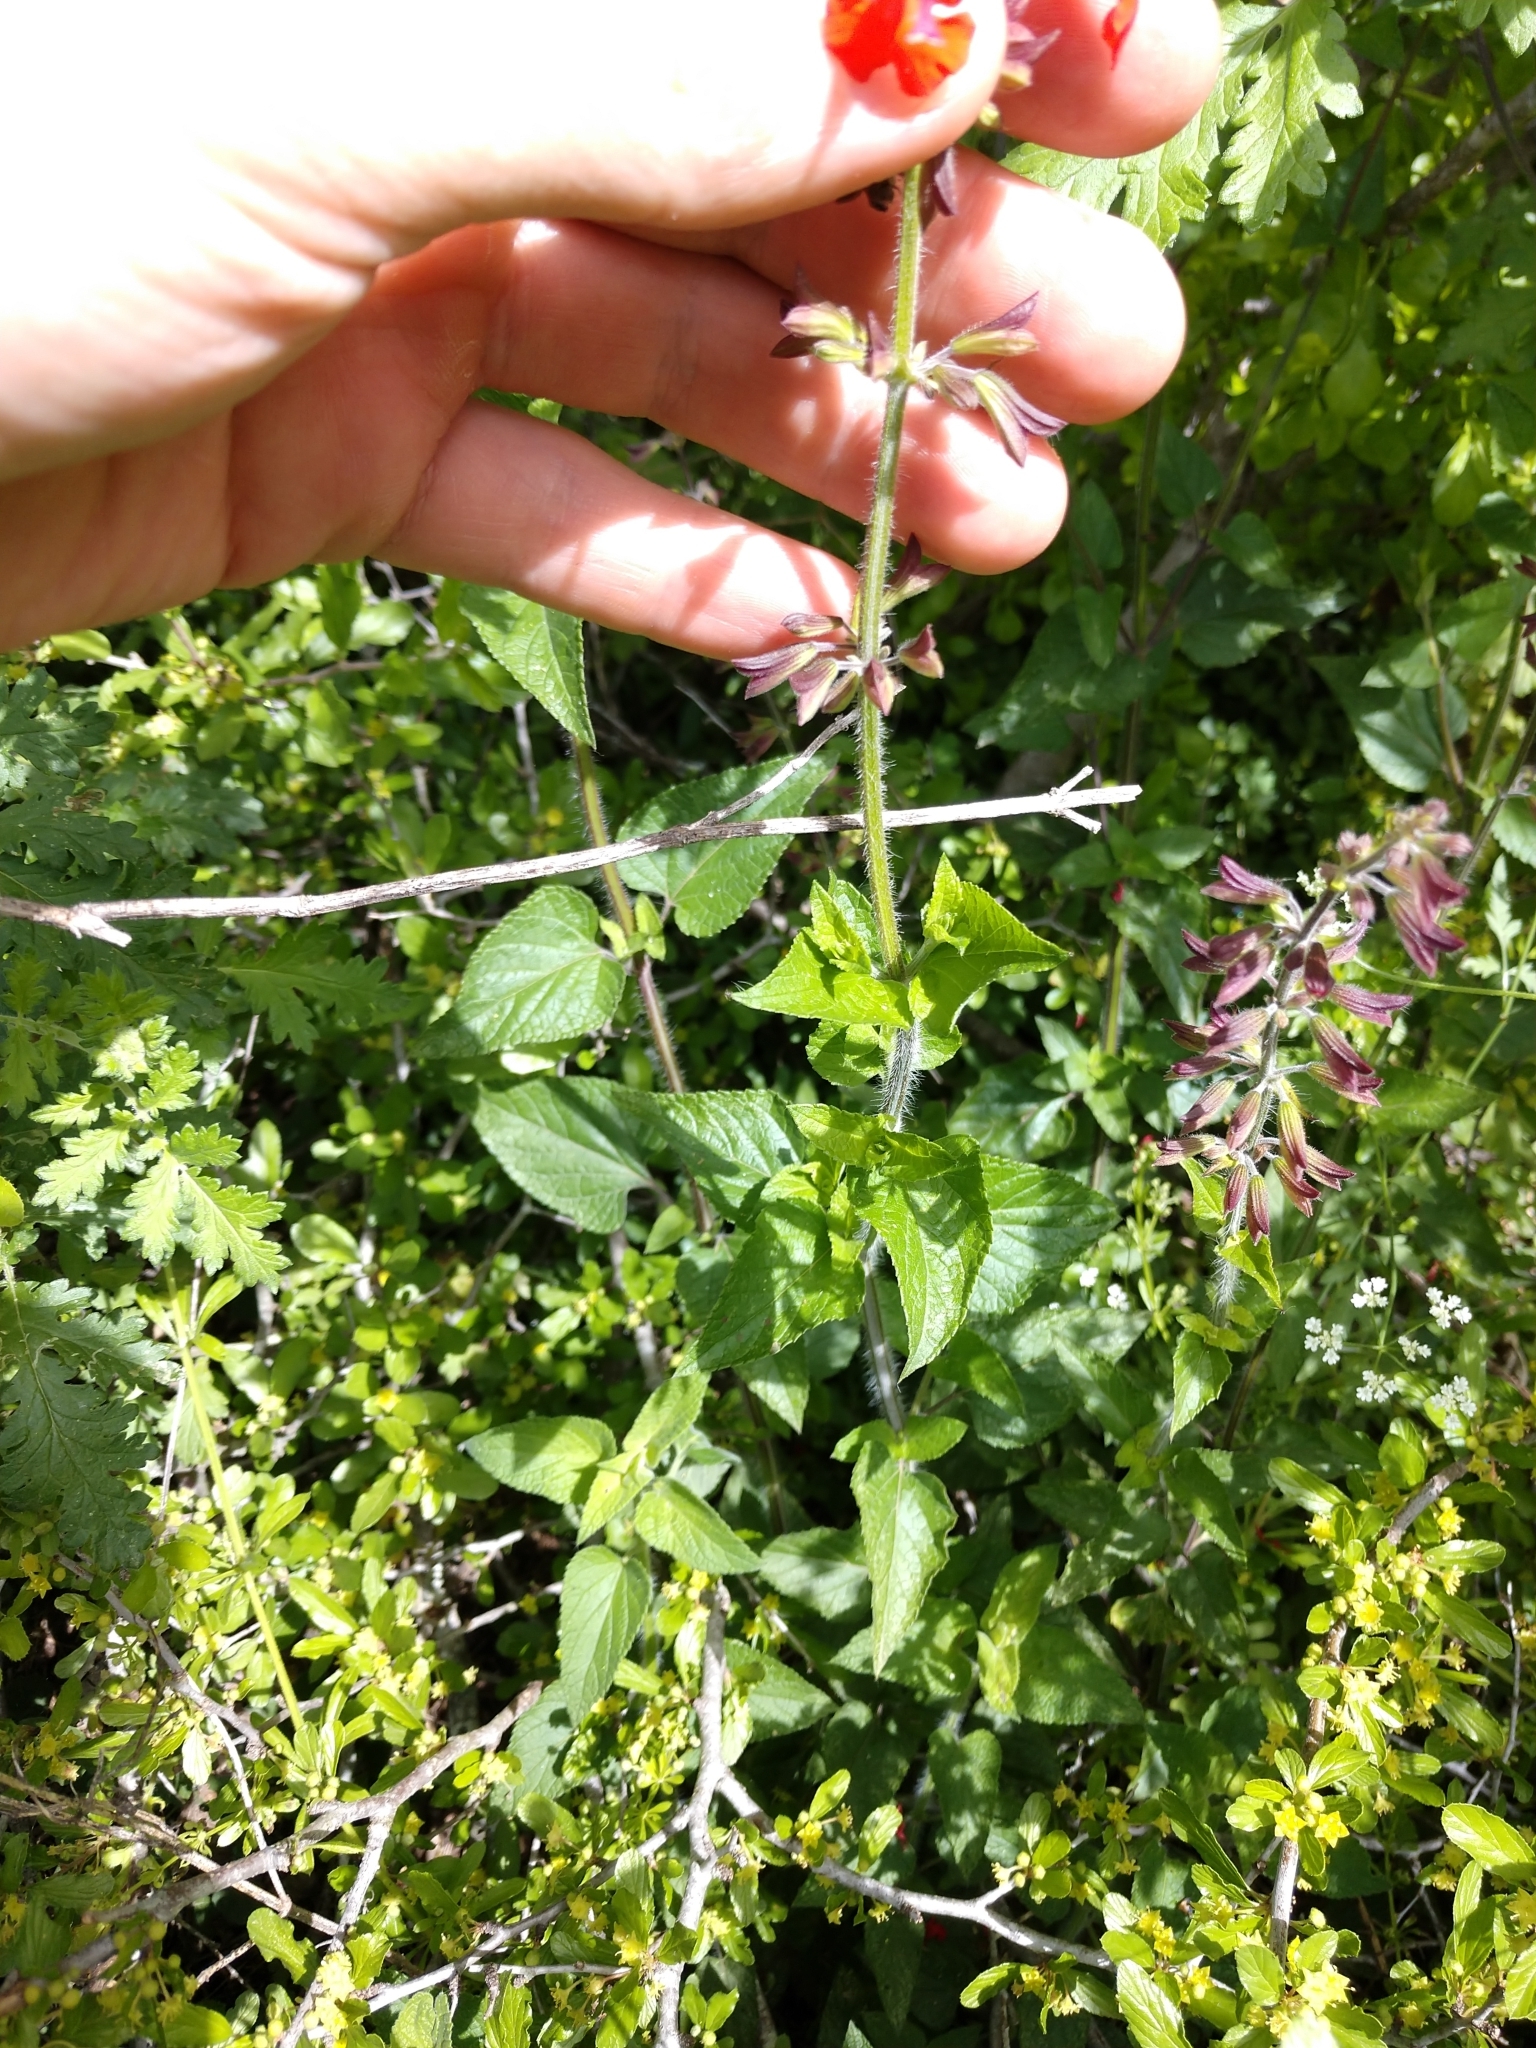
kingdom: Plantae
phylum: Tracheophyta
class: Magnoliopsida
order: Lamiales
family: Lamiaceae
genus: Salvia
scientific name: Salvia coccinea
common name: Blood sage
